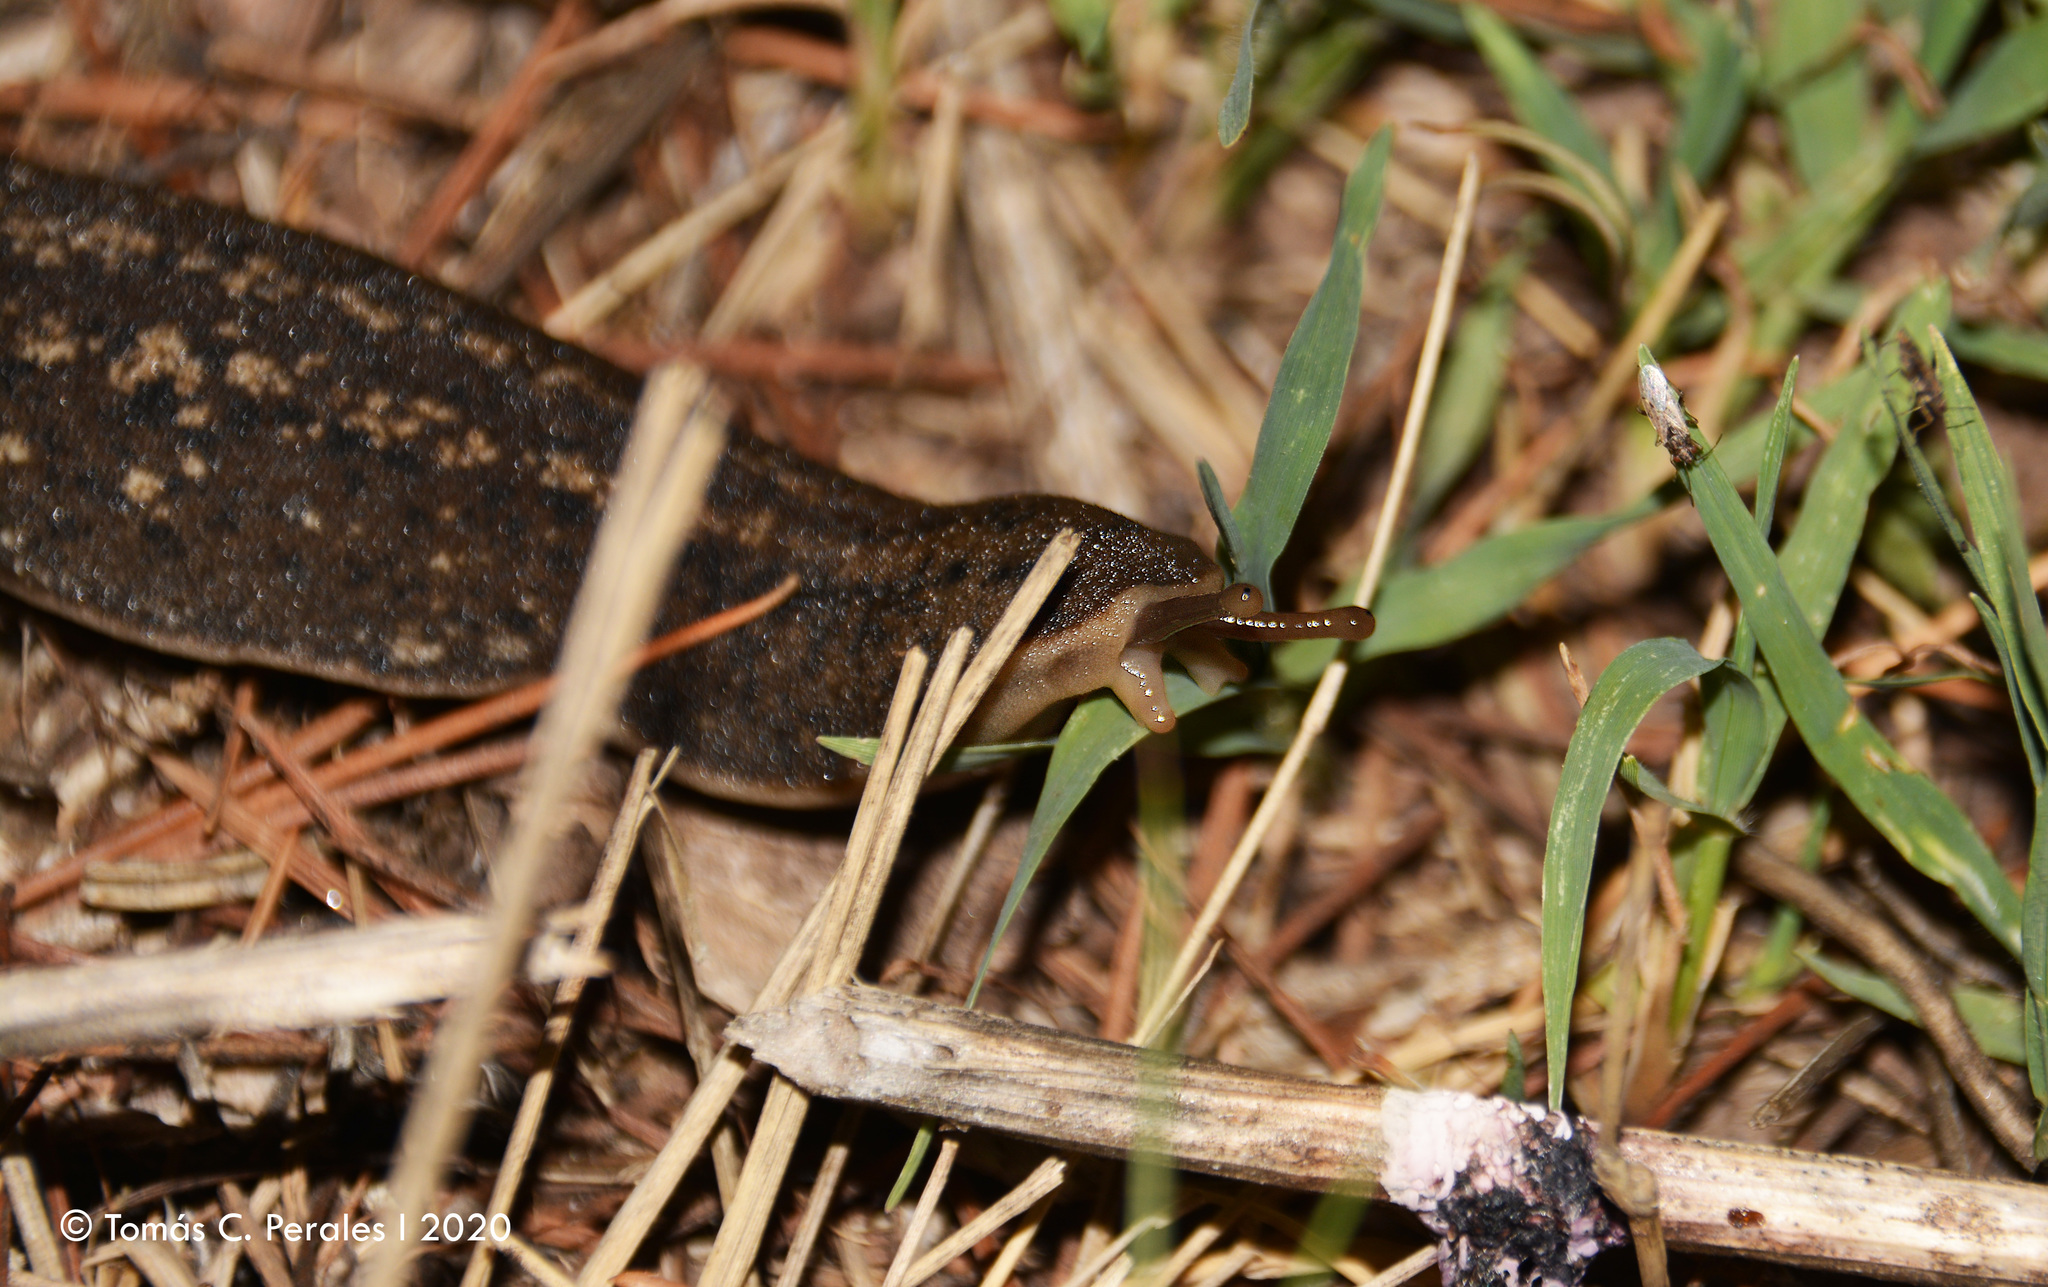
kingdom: Animalia
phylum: Mollusca
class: Gastropoda
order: Systellommatophora
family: Veronicellidae
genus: Phyllocaulis
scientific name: Phyllocaulis soleiformis
